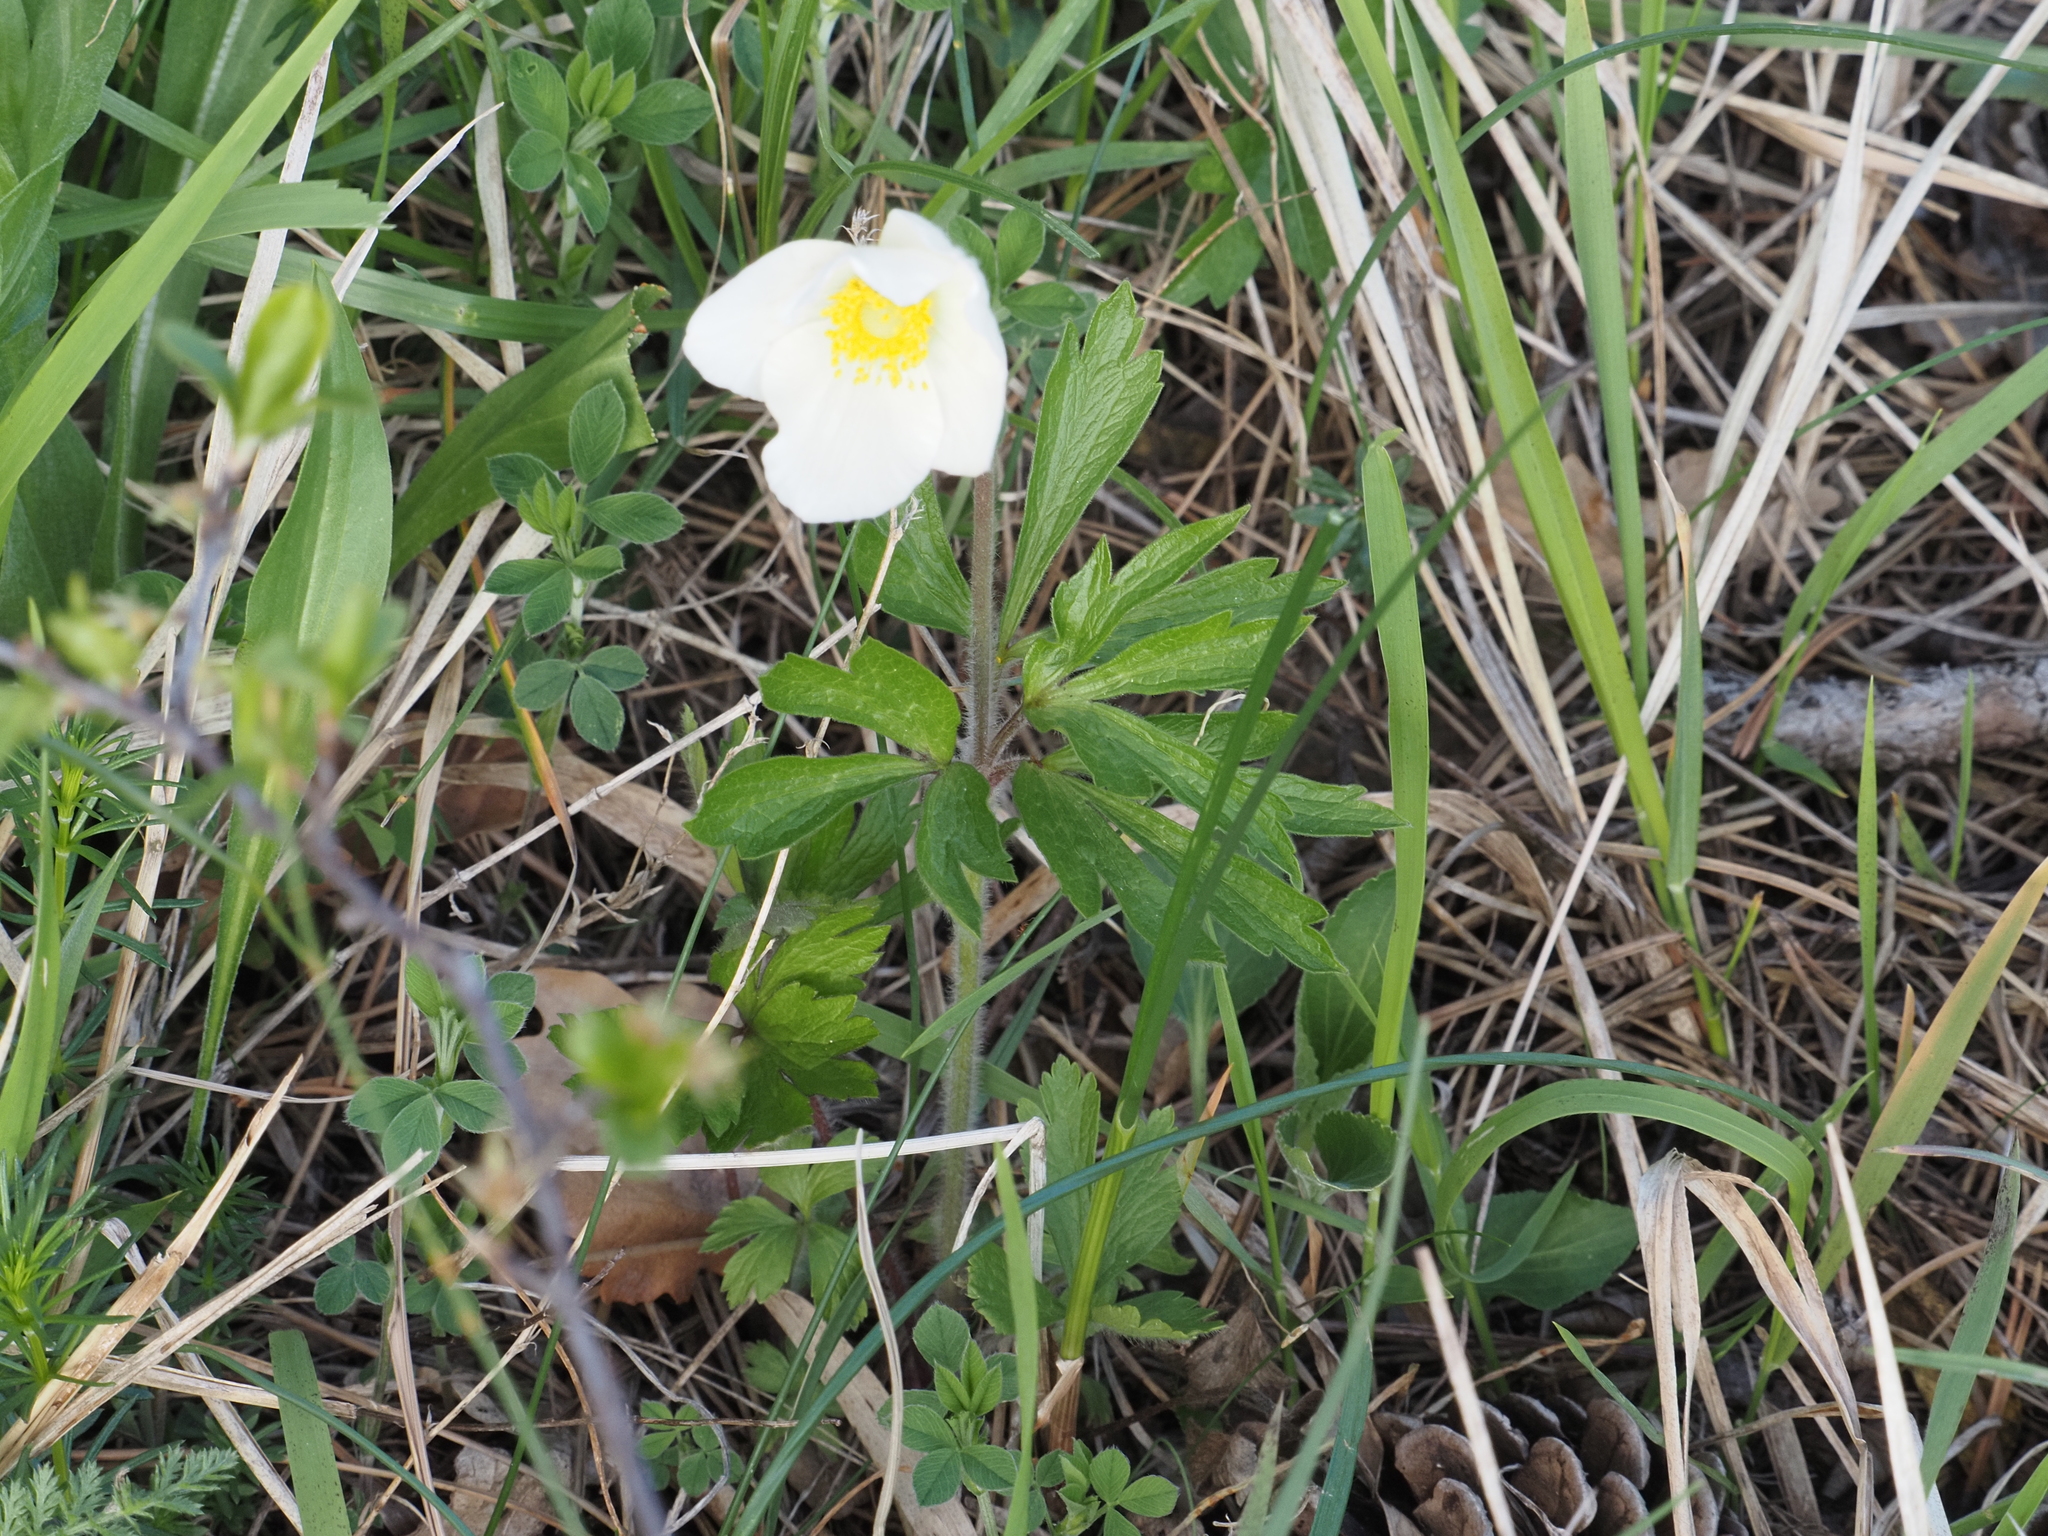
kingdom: Plantae
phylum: Tracheophyta
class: Magnoliopsida
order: Ranunculales
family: Ranunculaceae
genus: Anemone
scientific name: Anemone sylvestris
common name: Snowdrop anemone
